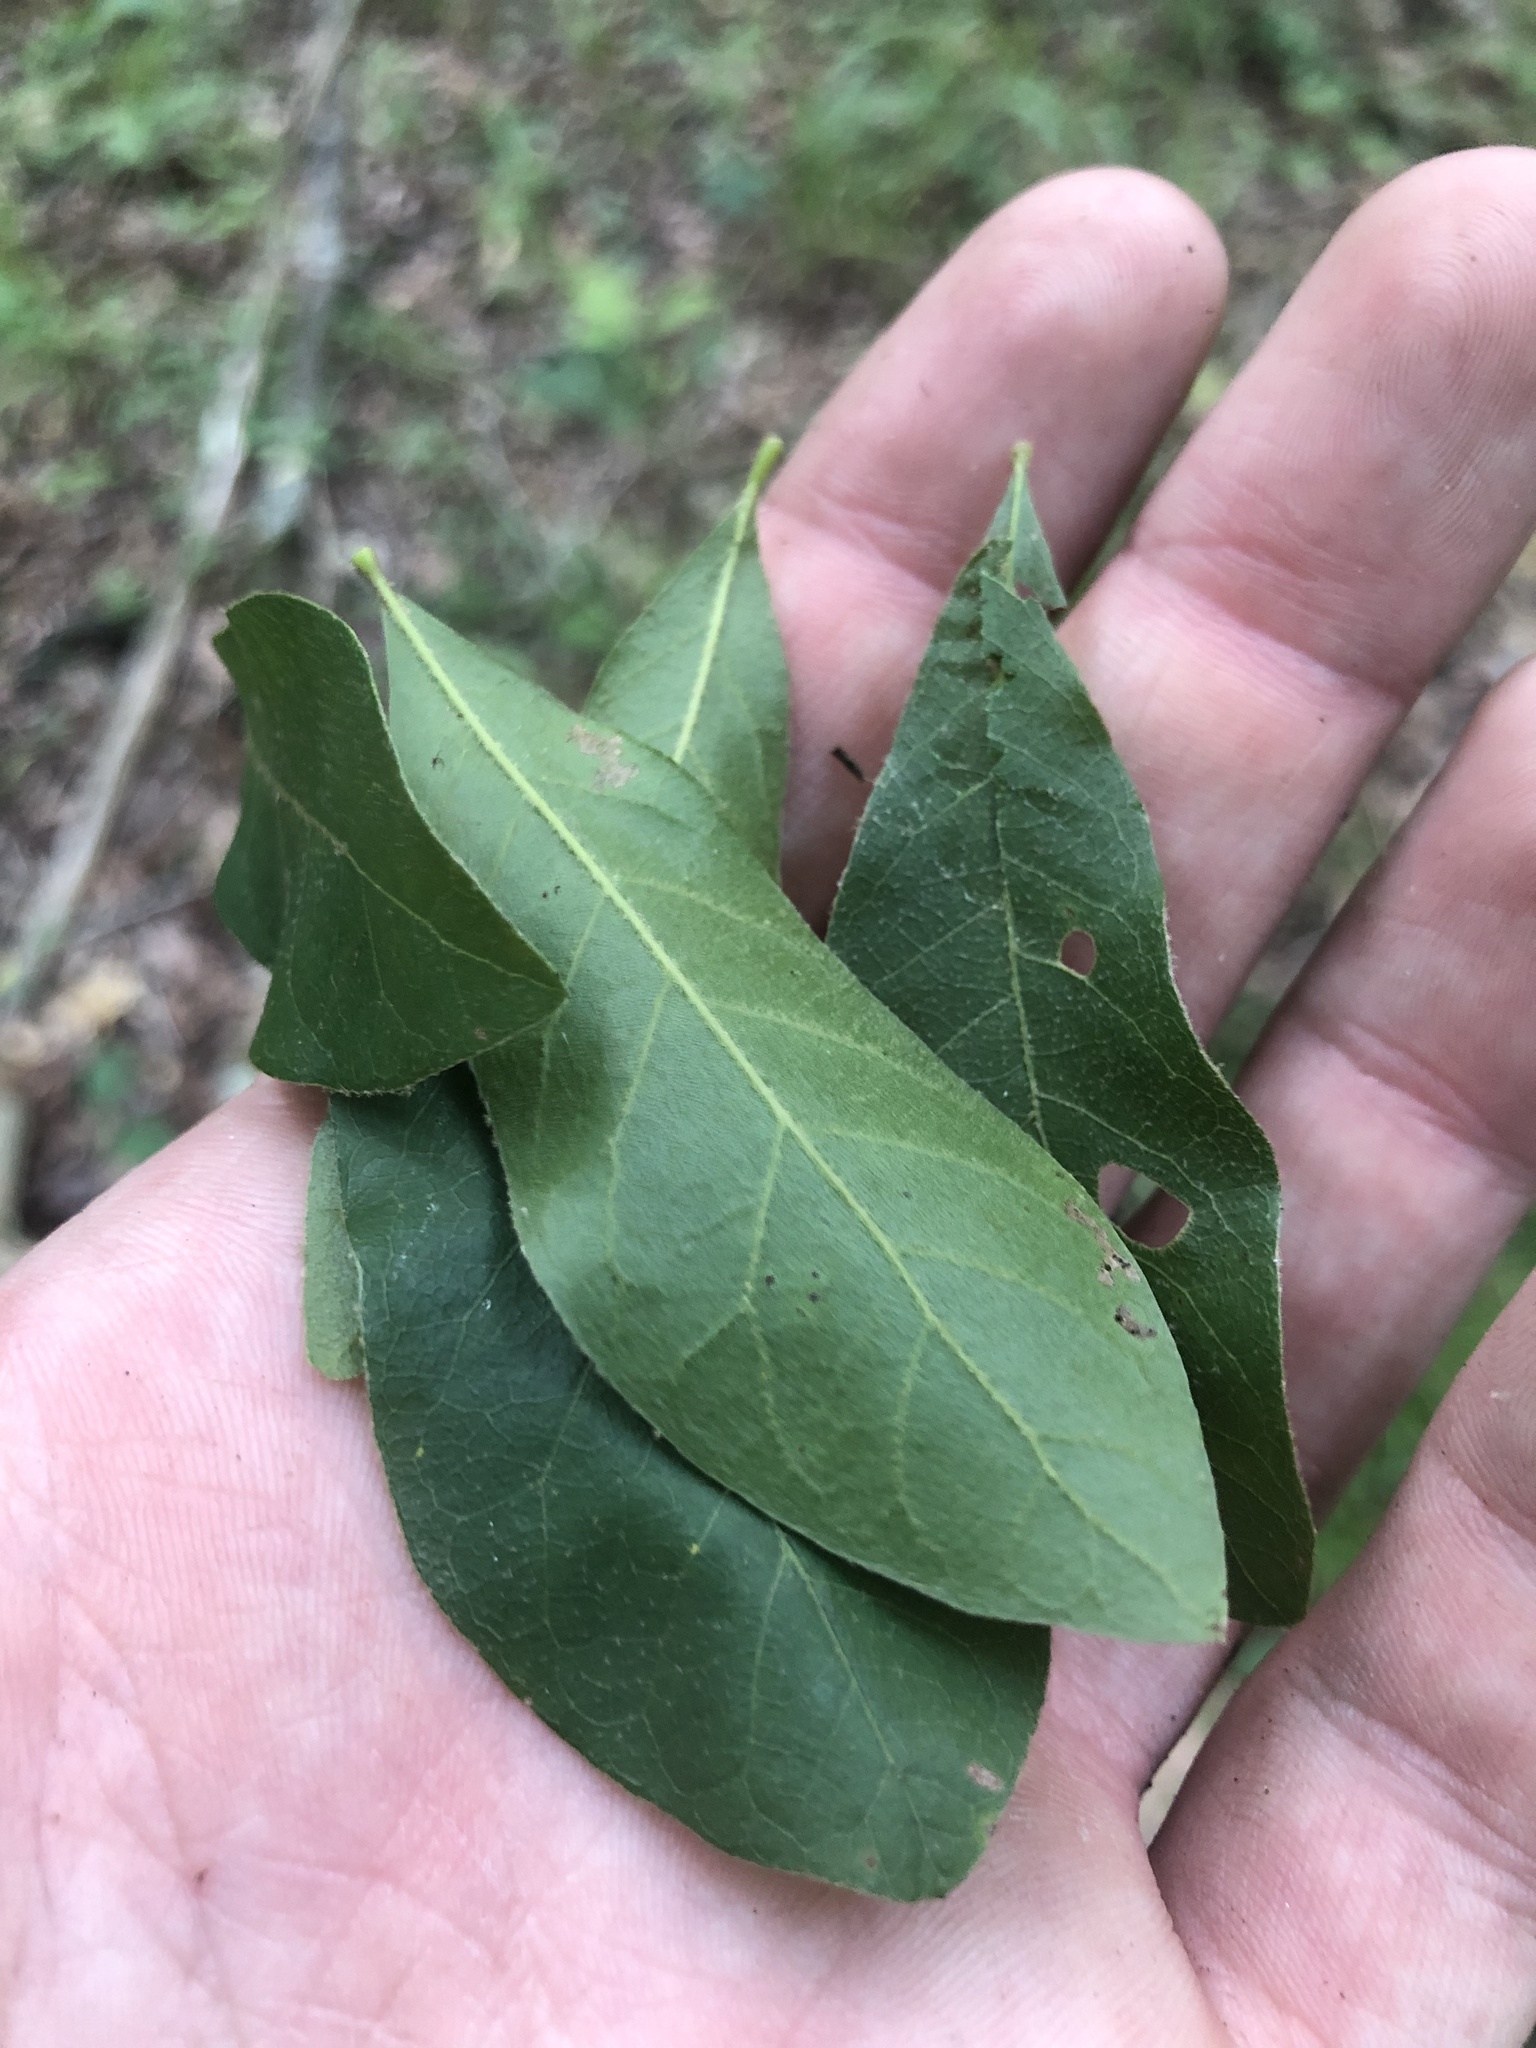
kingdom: Plantae
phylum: Tracheophyta
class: Magnoliopsida
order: Fagales
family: Fagaceae
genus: Quercus
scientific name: Quercus oglethorpensis
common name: Oglethorpe oak
